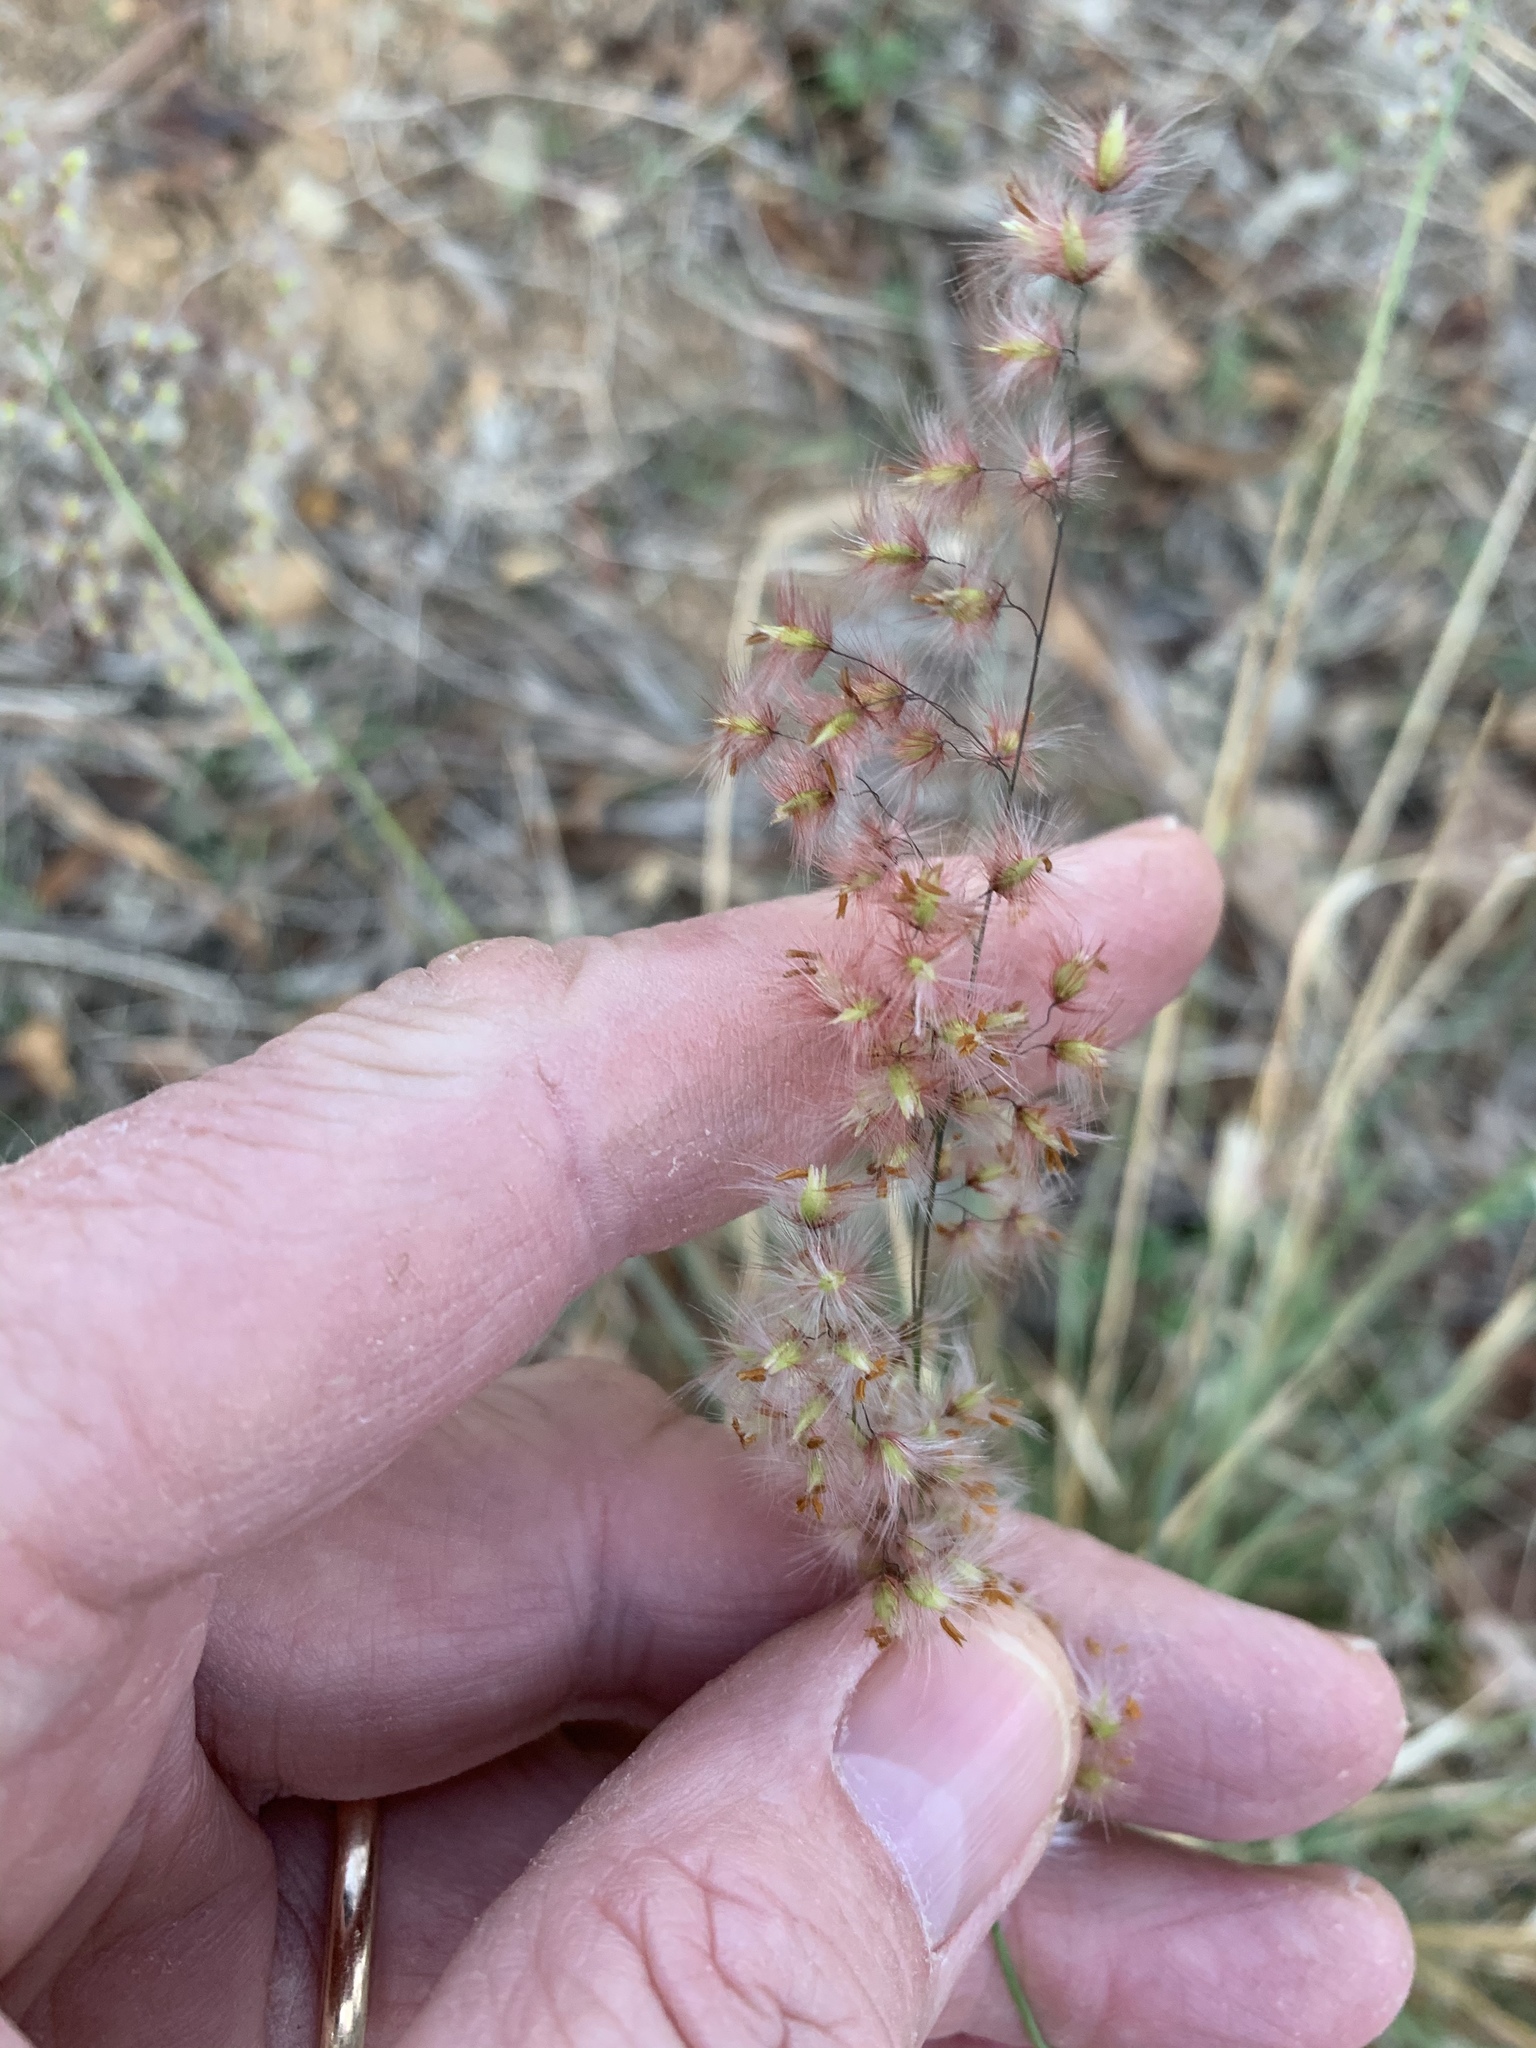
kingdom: Plantae
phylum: Tracheophyta
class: Liliopsida
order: Poales
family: Poaceae
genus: Melinis
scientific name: Melinis repens
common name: Rose natal grass
